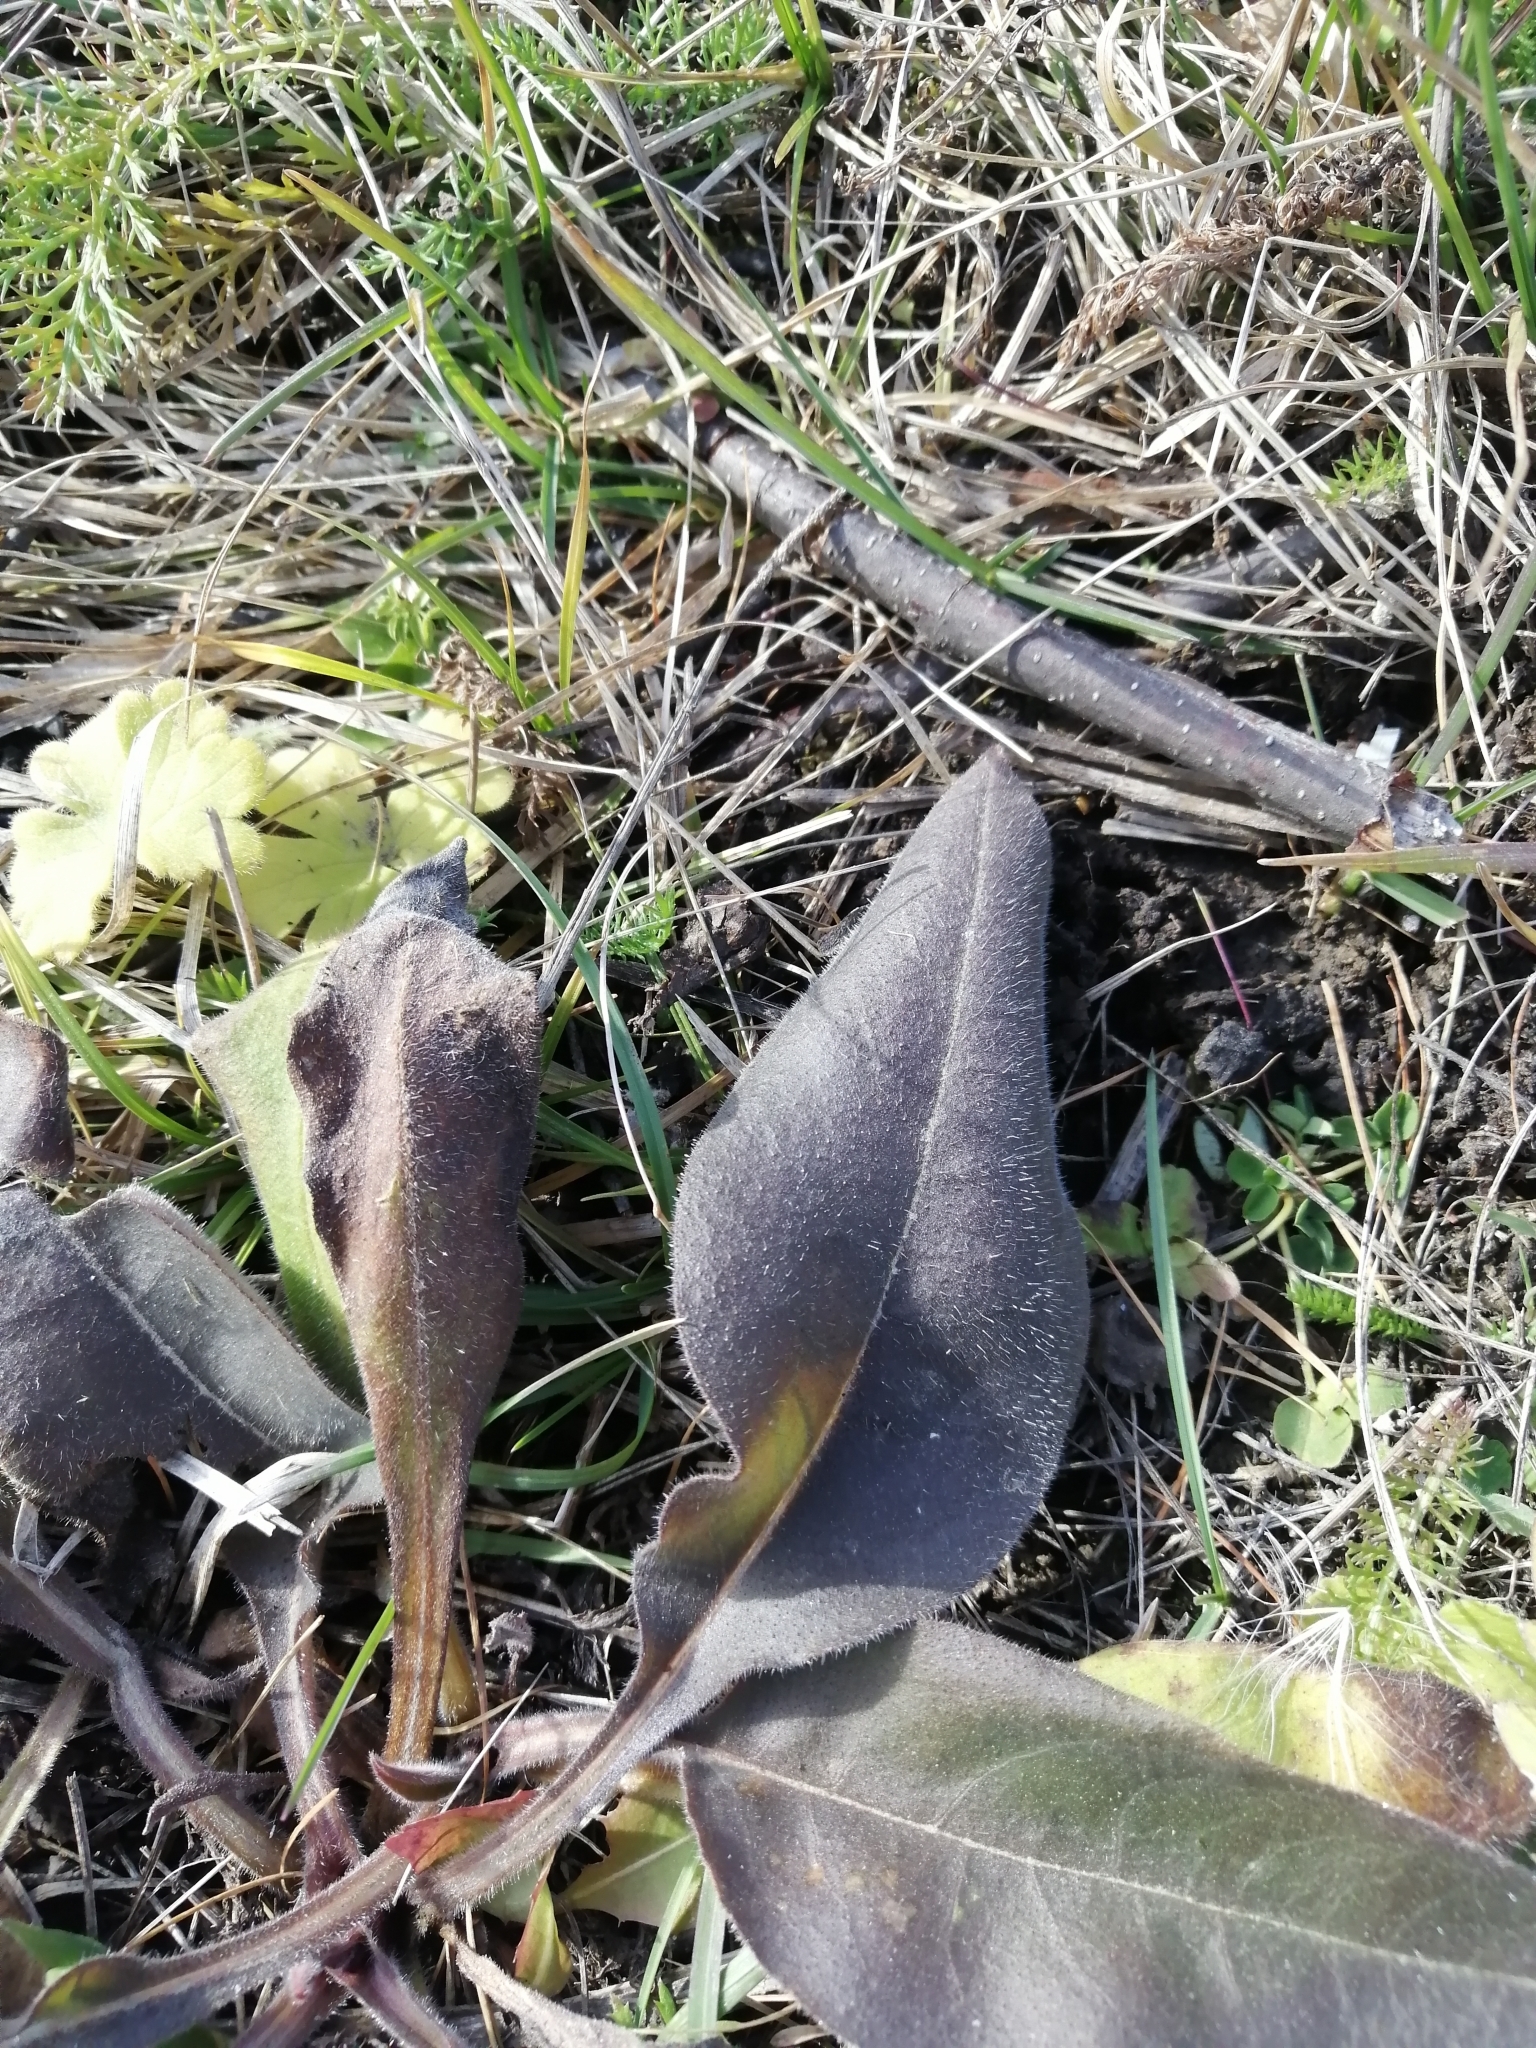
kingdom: Plantae
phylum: Tracheophyta
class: Magnoliopsida
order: Boraginales
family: Boraginaceae
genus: Pulmonaria
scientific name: Pulmonaria mollis
